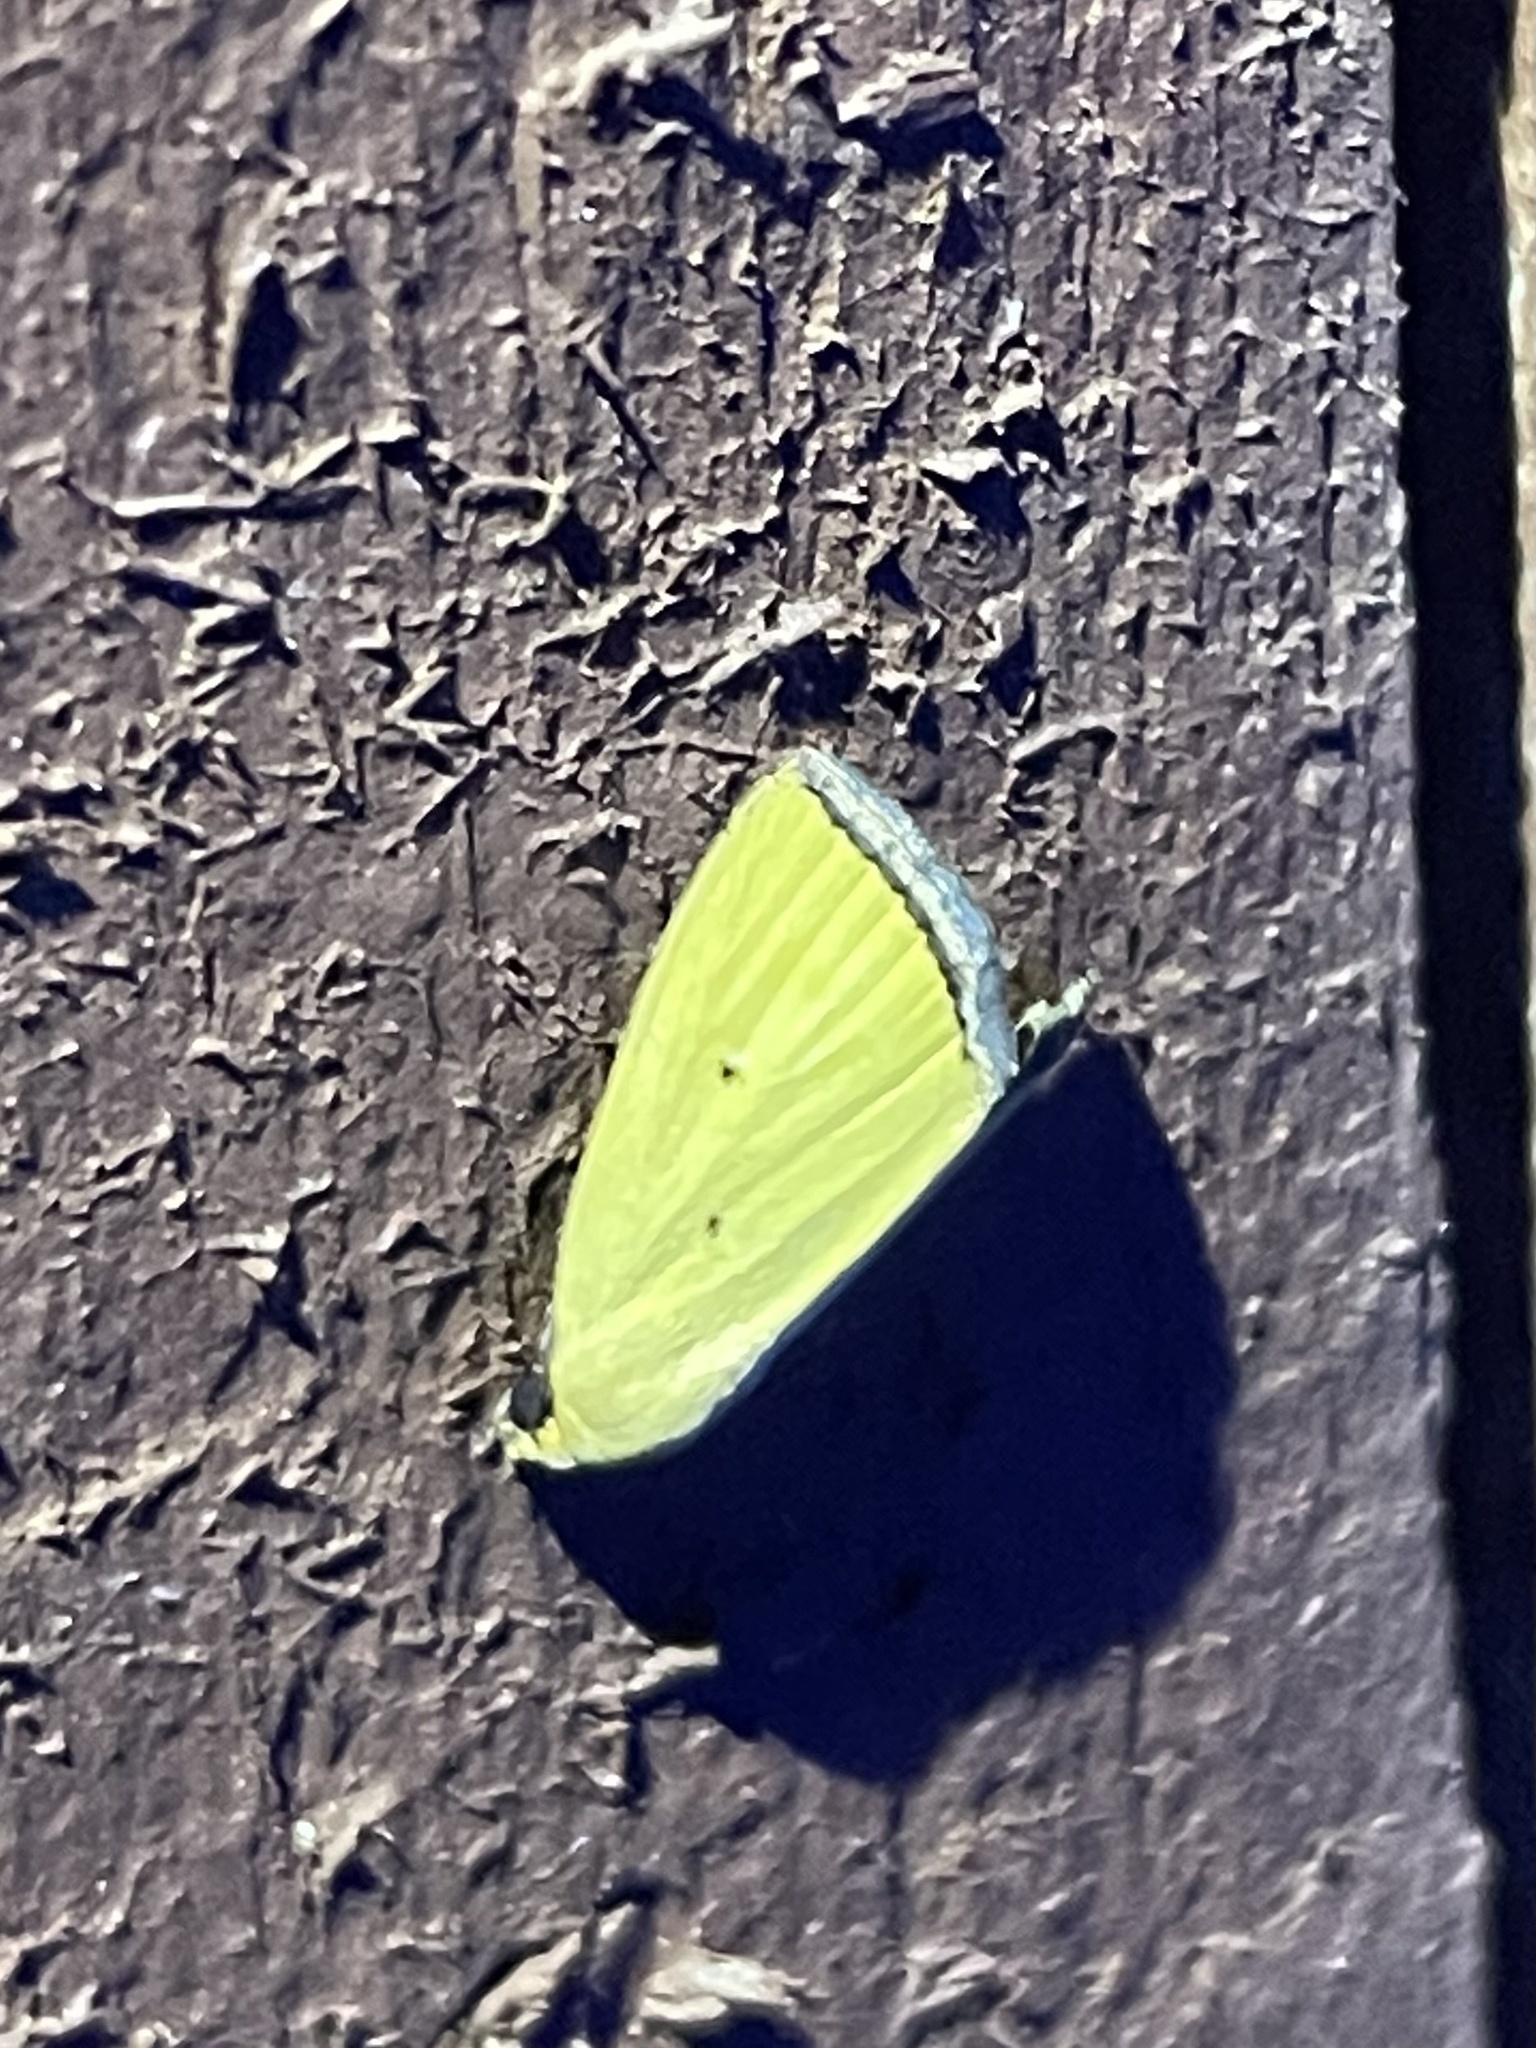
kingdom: Animalia
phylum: Arthropoda
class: Insecta
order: Lepidoptera
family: Noctuidae
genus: Marimatha
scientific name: Marimatha nigrofimbria
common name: Black-bordered lemon moth
